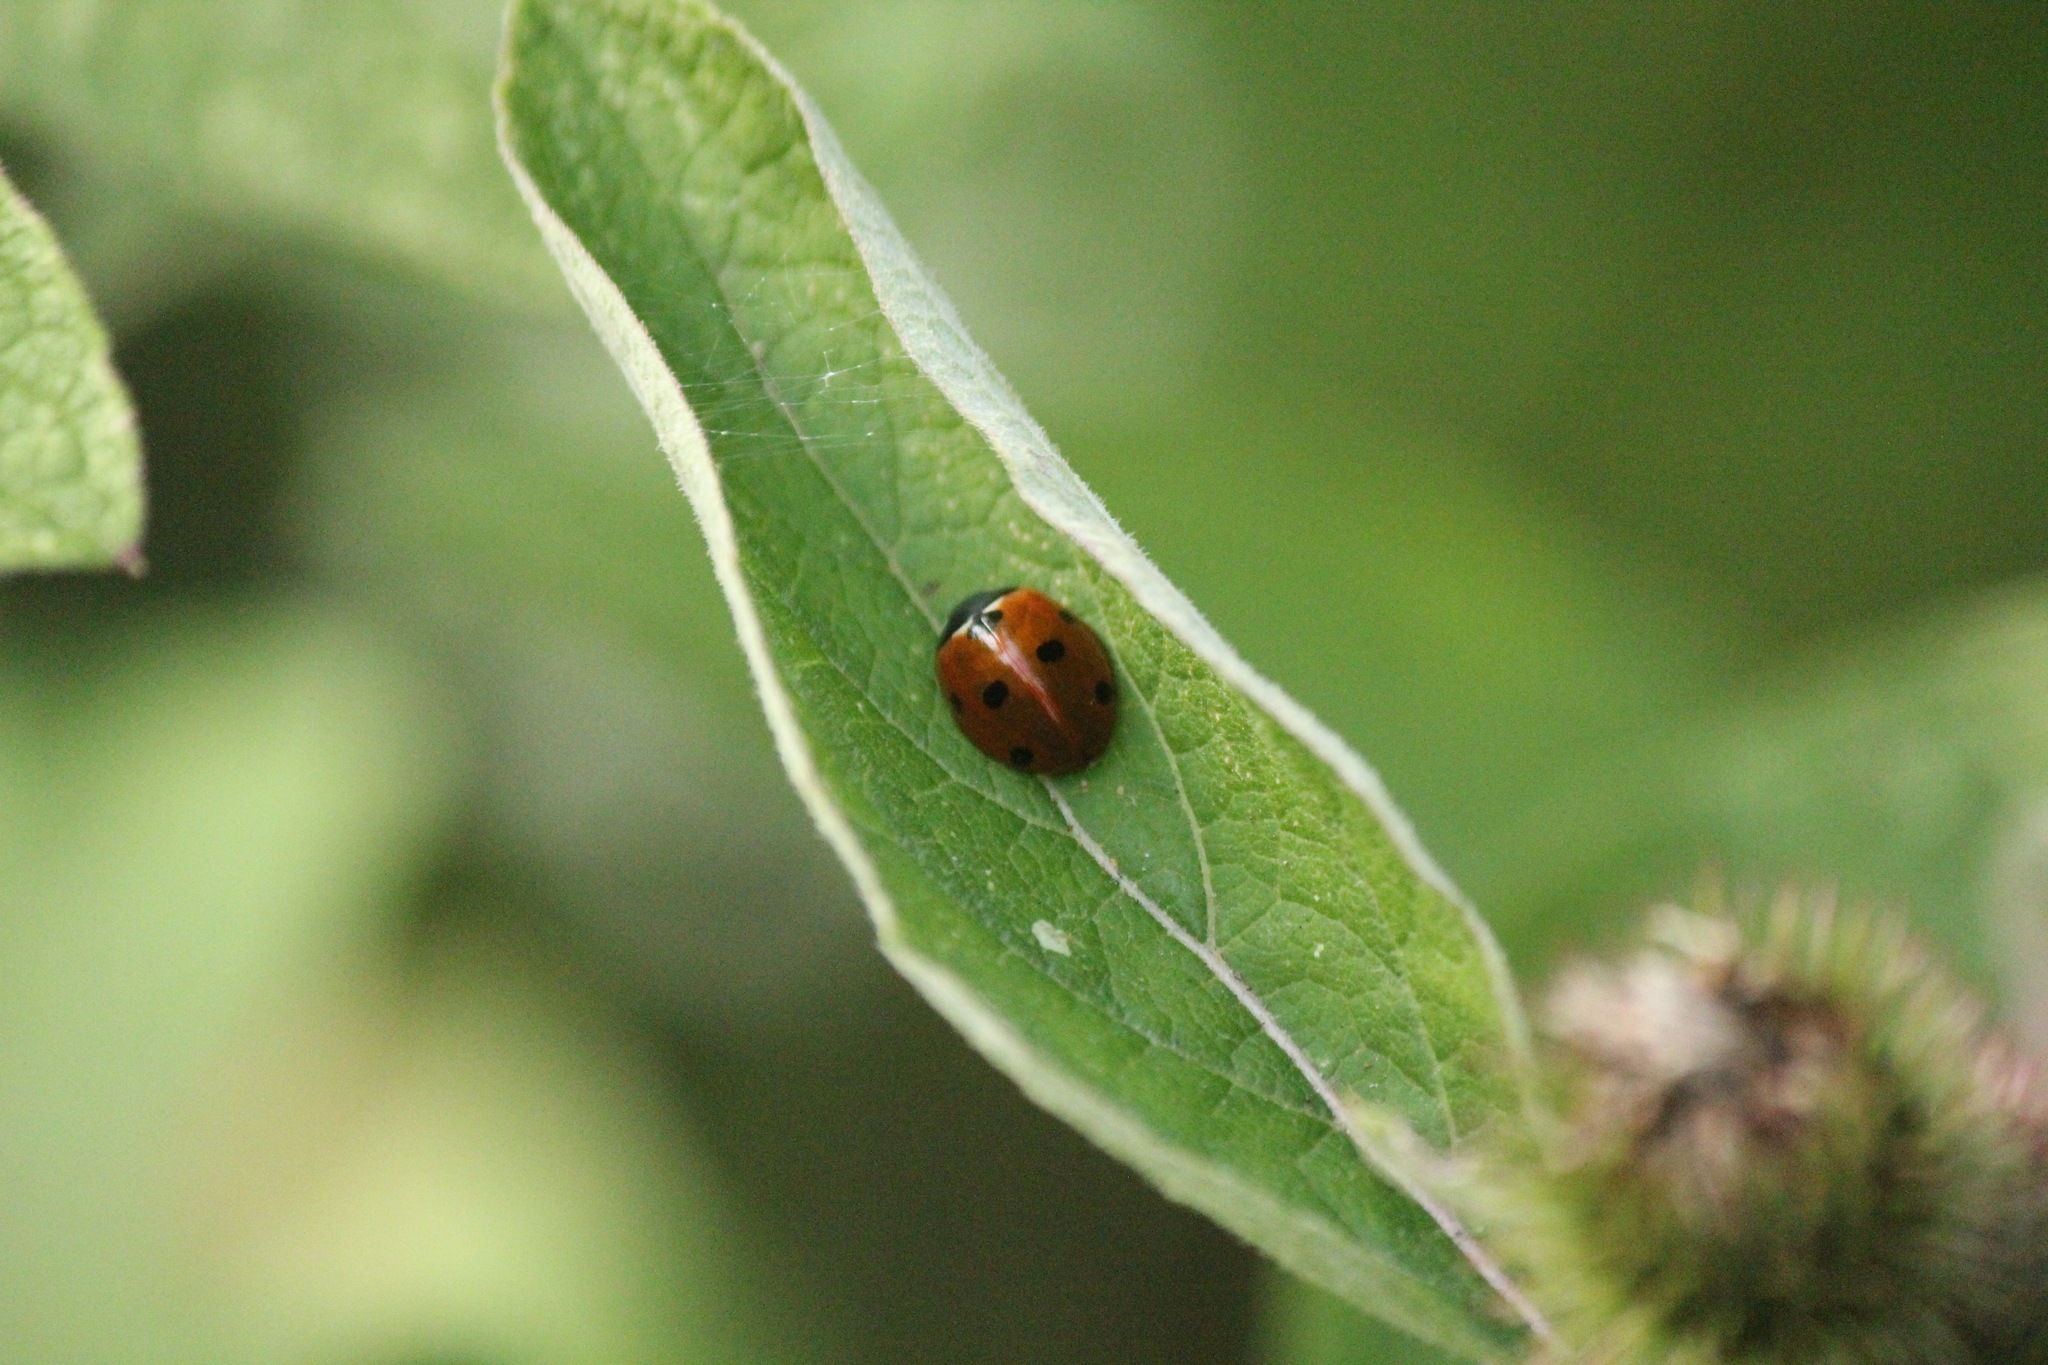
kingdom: Animalia
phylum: Arthropoda
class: Insecta
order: Coleoptera
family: Coccinellidae
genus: Coccinella
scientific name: Coccinella septempunctata
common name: Sevenspotted lady beetle
